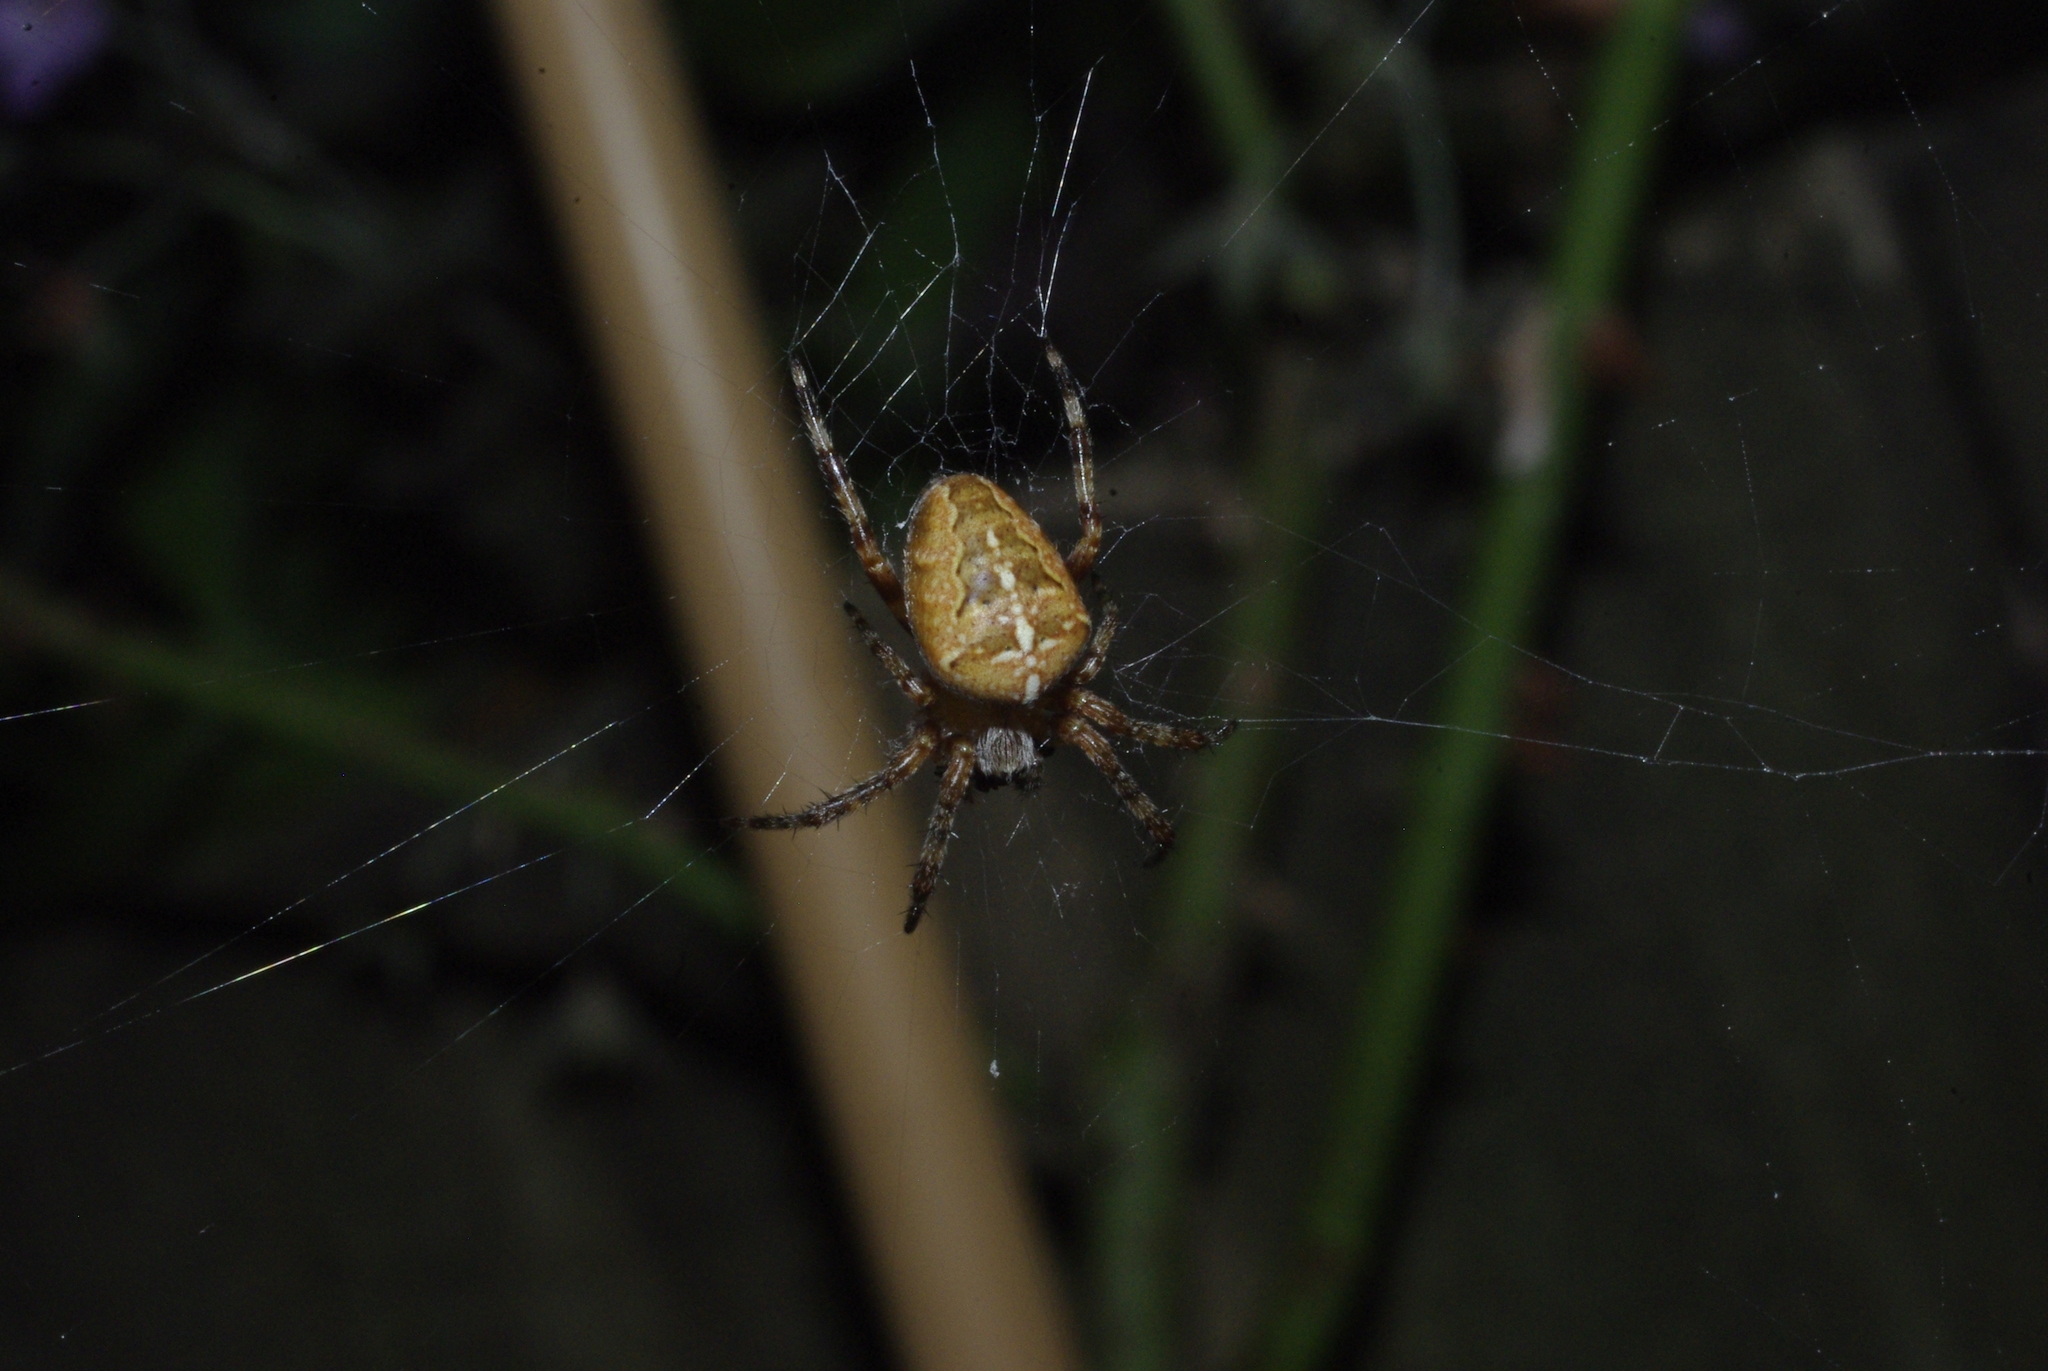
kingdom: Animalia
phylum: Arthropoda
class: Arachnida
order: Araneae
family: Araneidae
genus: Araneus
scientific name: Araneus diadematus
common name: Cross orbweaver
